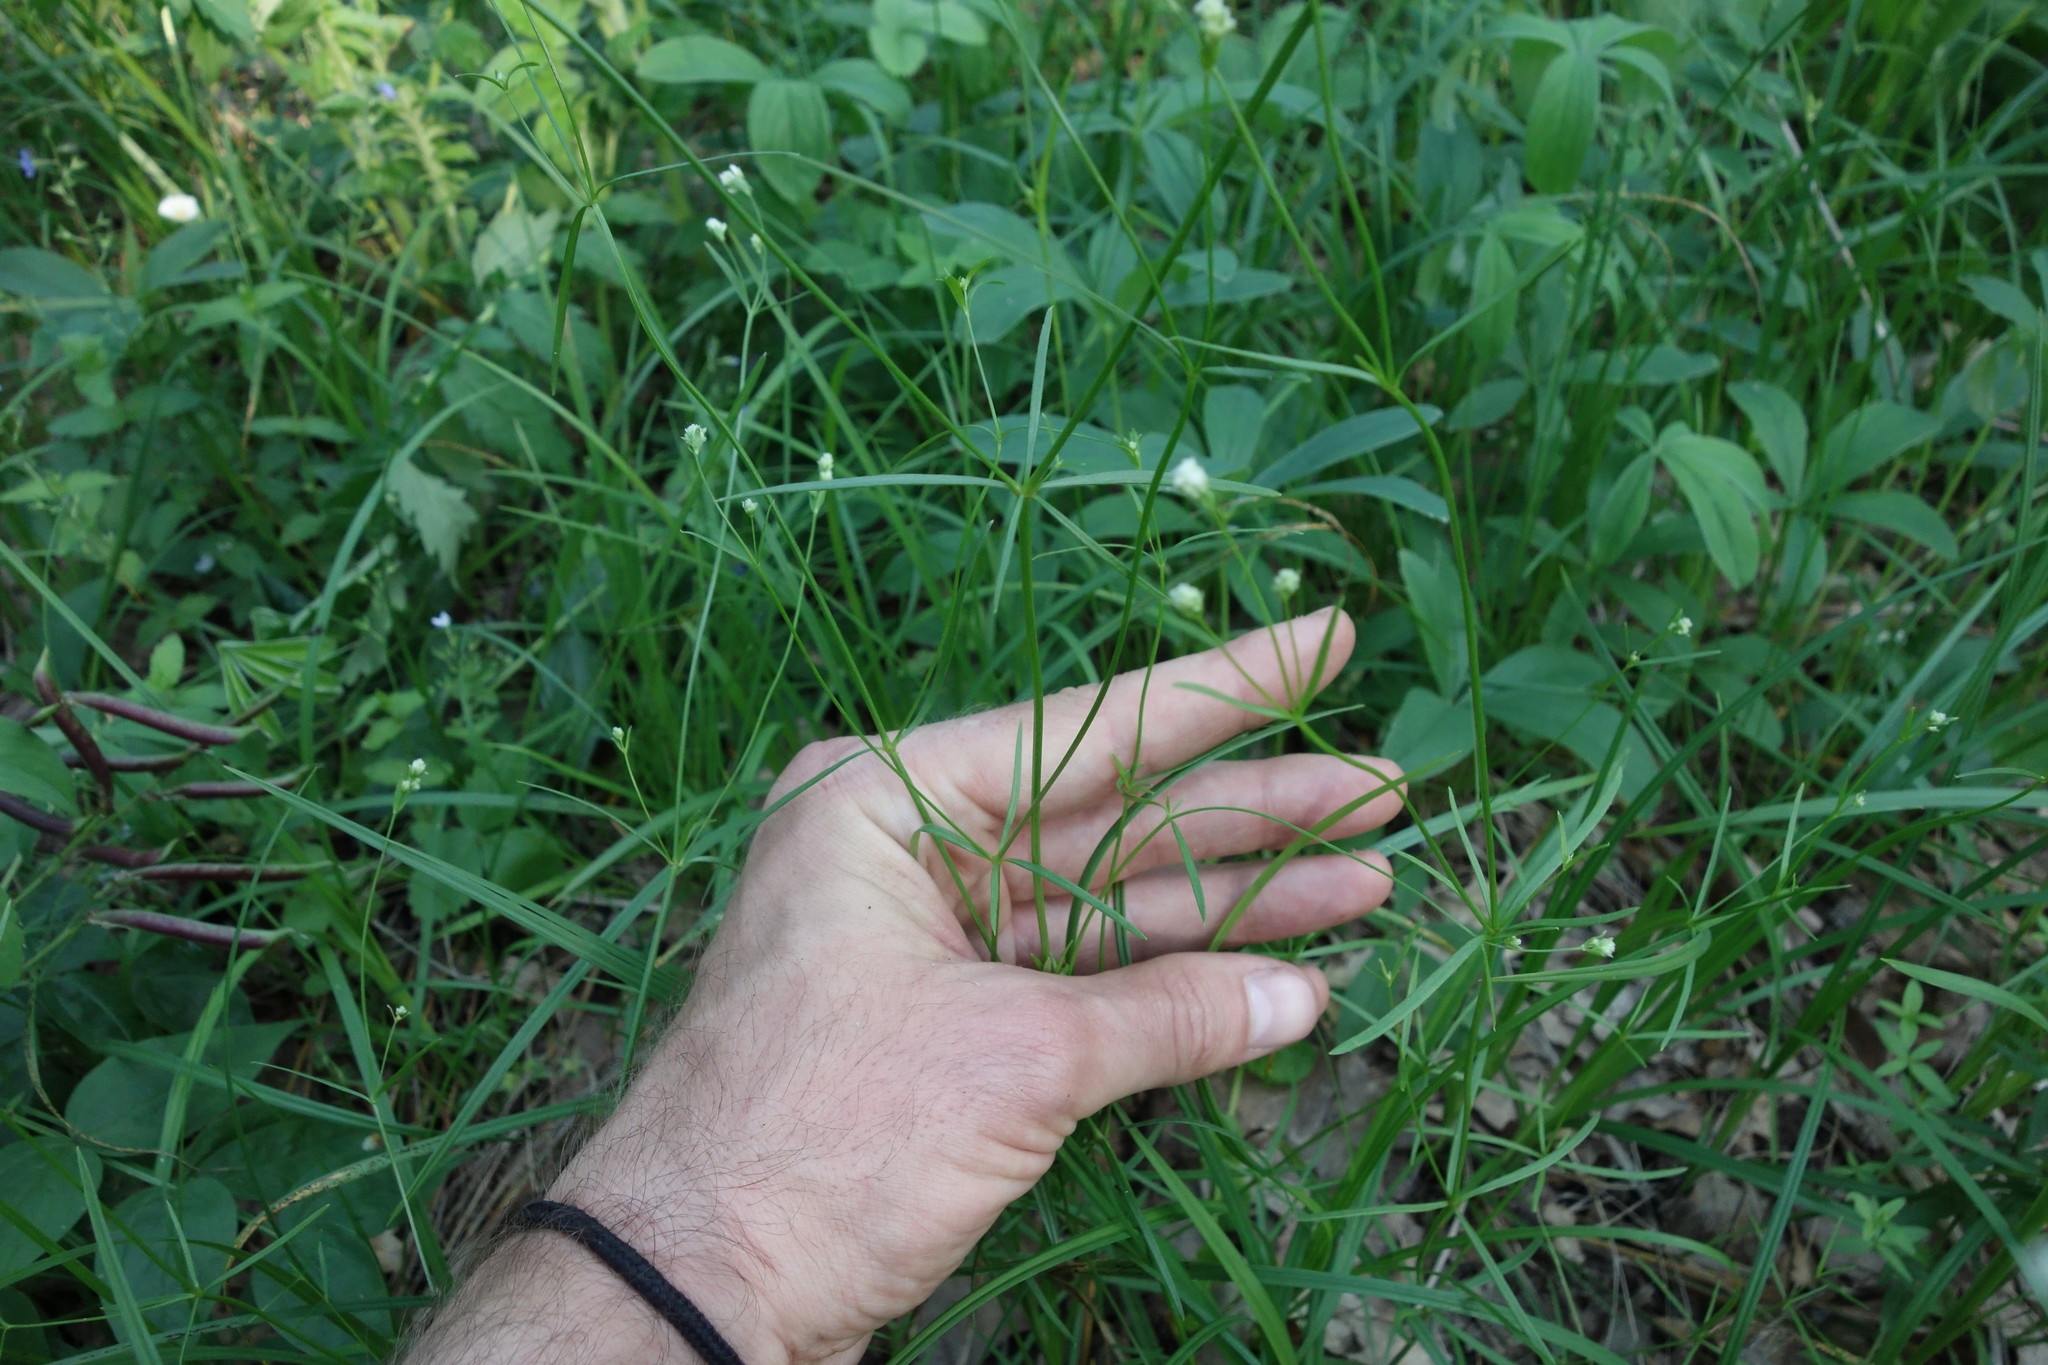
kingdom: Plantae
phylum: Tracheophyta
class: Magnoliopsida
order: Gentianales
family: Rubiaceae
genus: Asperula
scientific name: Asperula tinctoria
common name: Dyer's woodruff
